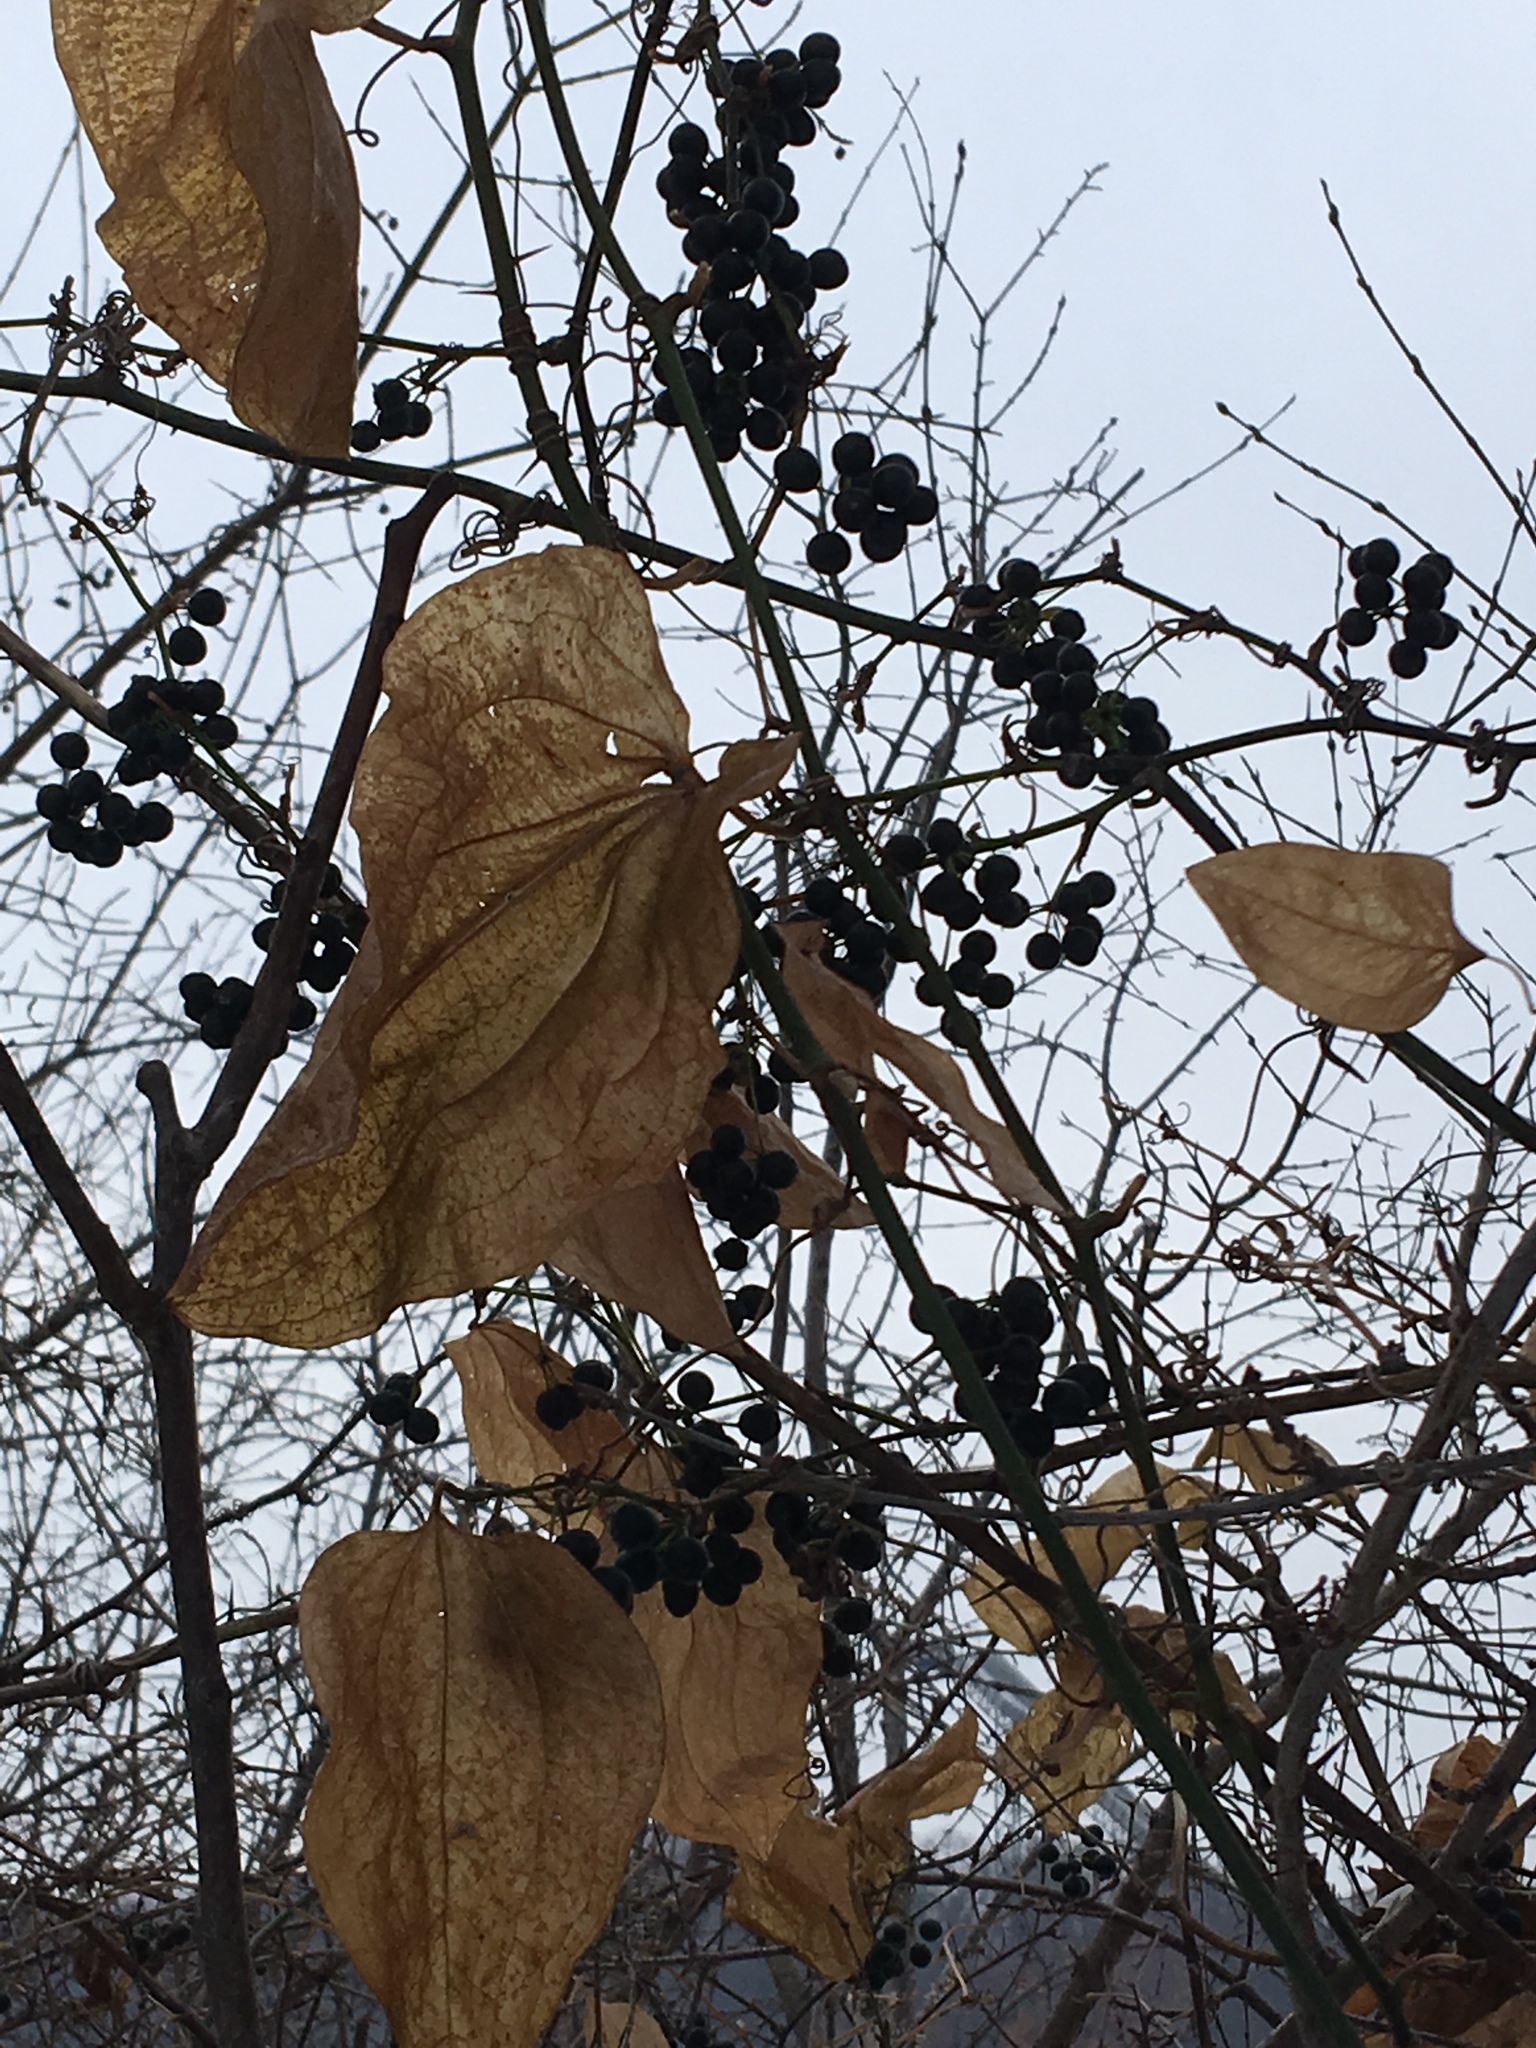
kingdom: Plantae
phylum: Tracheophyta
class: Liliopsida
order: Liliales
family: Smilacaceae
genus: Smilax
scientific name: Smilax tamnoides
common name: Hellfetter
